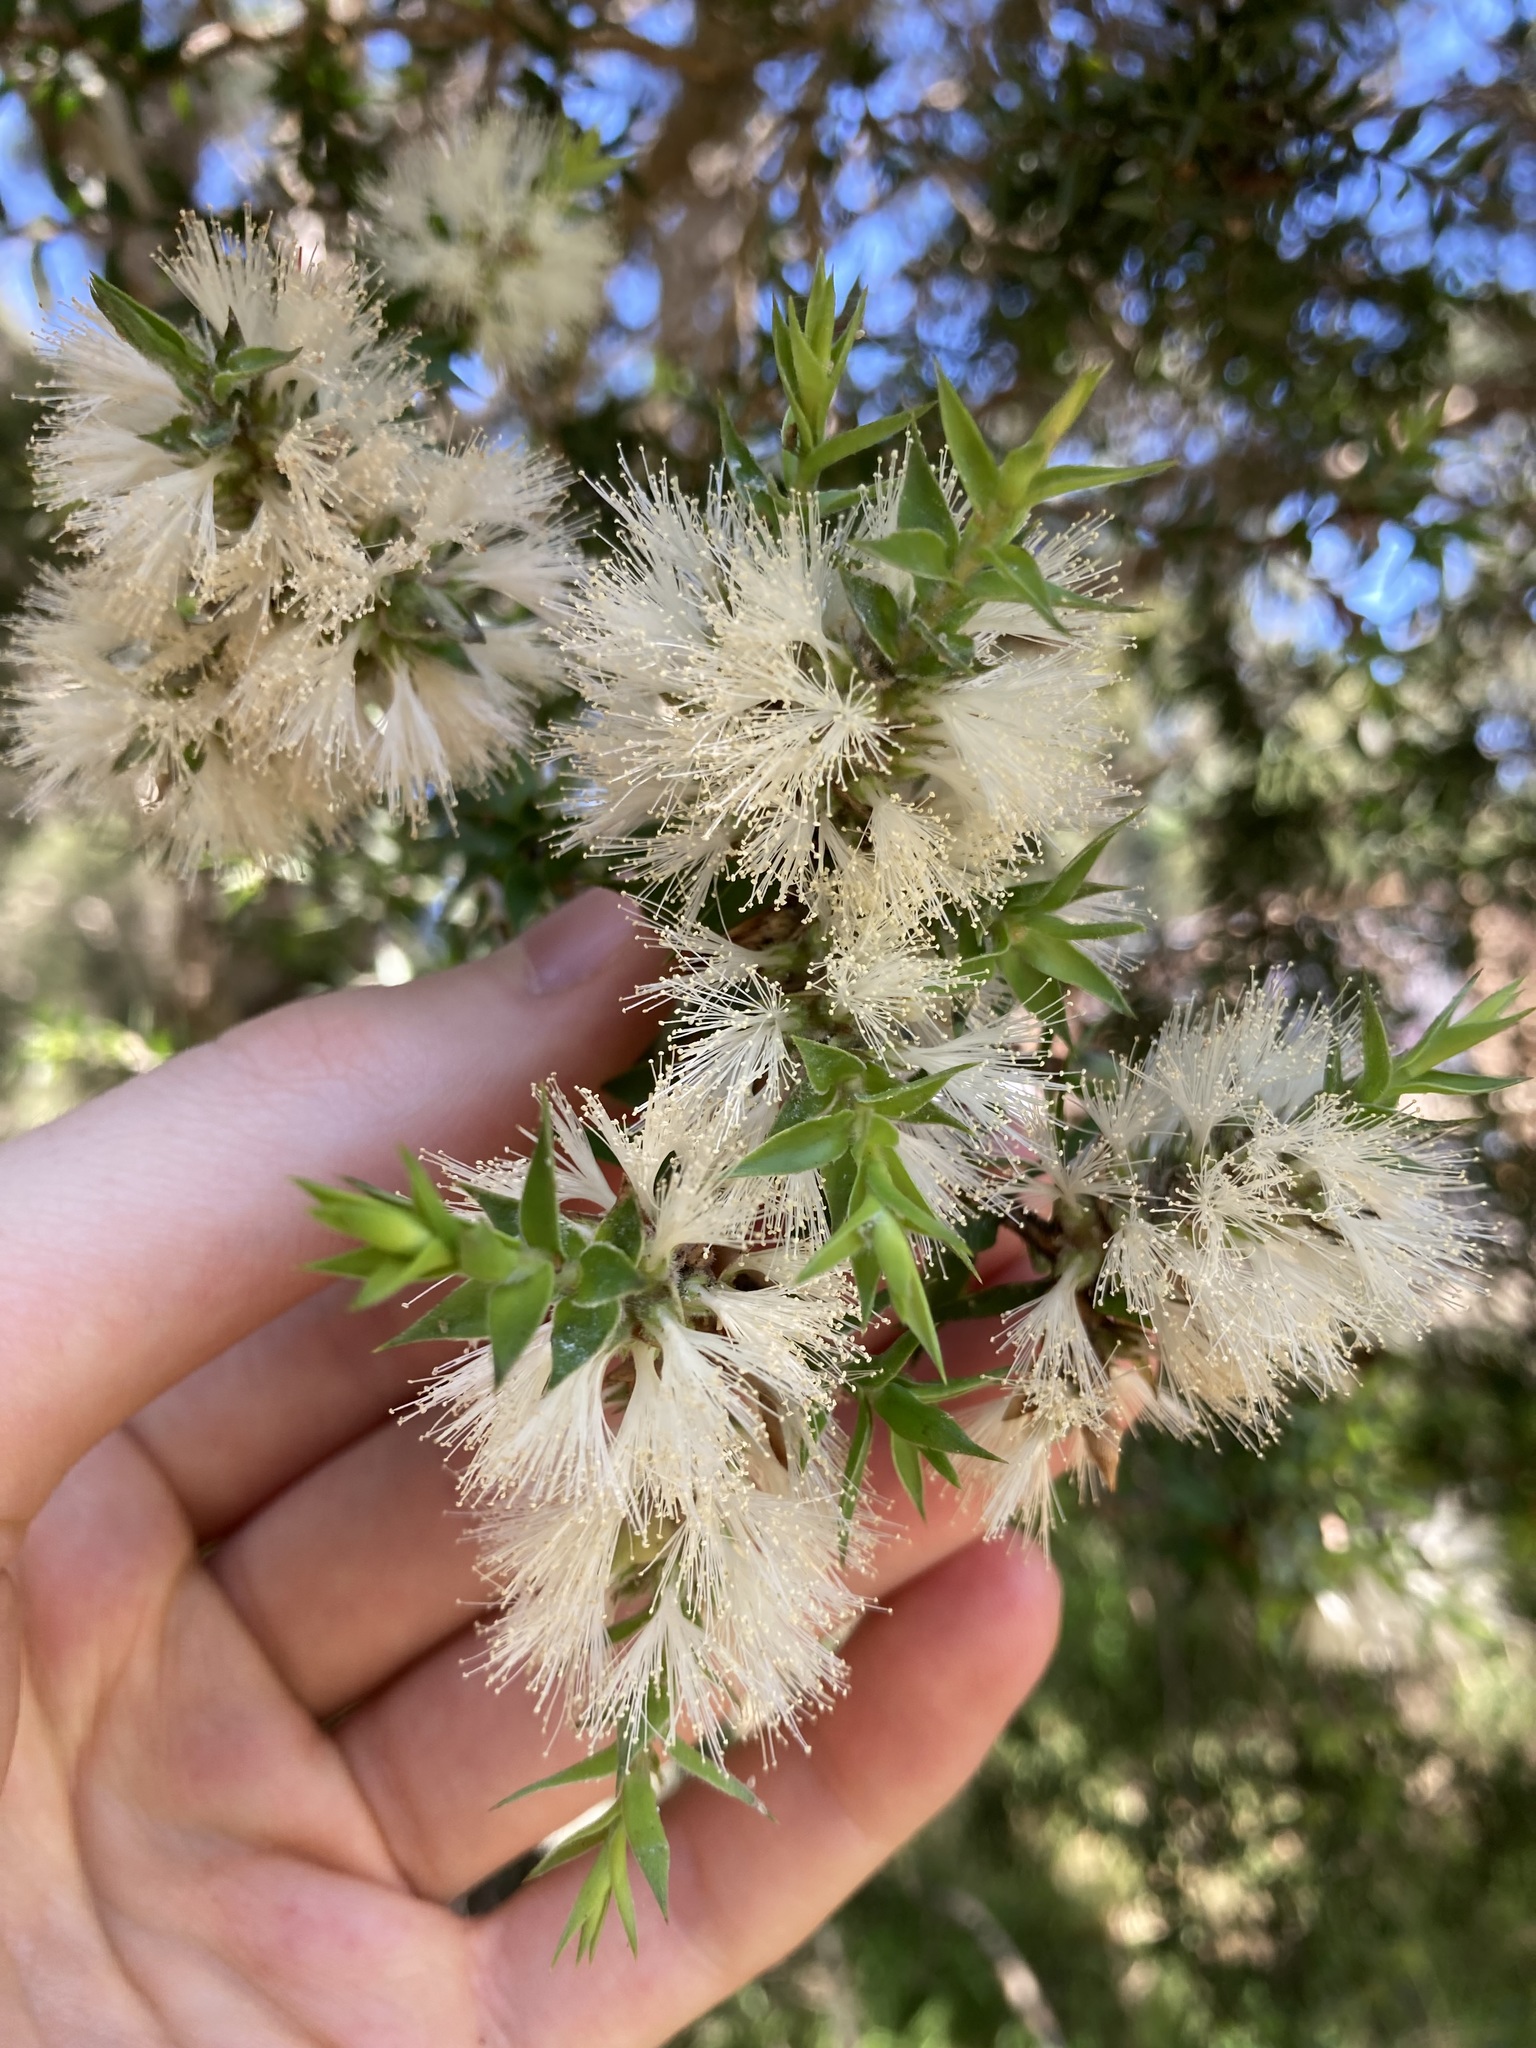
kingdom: Plantae
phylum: Tracheophyta
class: Magnoliopsida
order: Myrtales
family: Myrtaceae
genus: Melaleuca
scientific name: Melaleuca styphelioides
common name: Prickly paperbark
